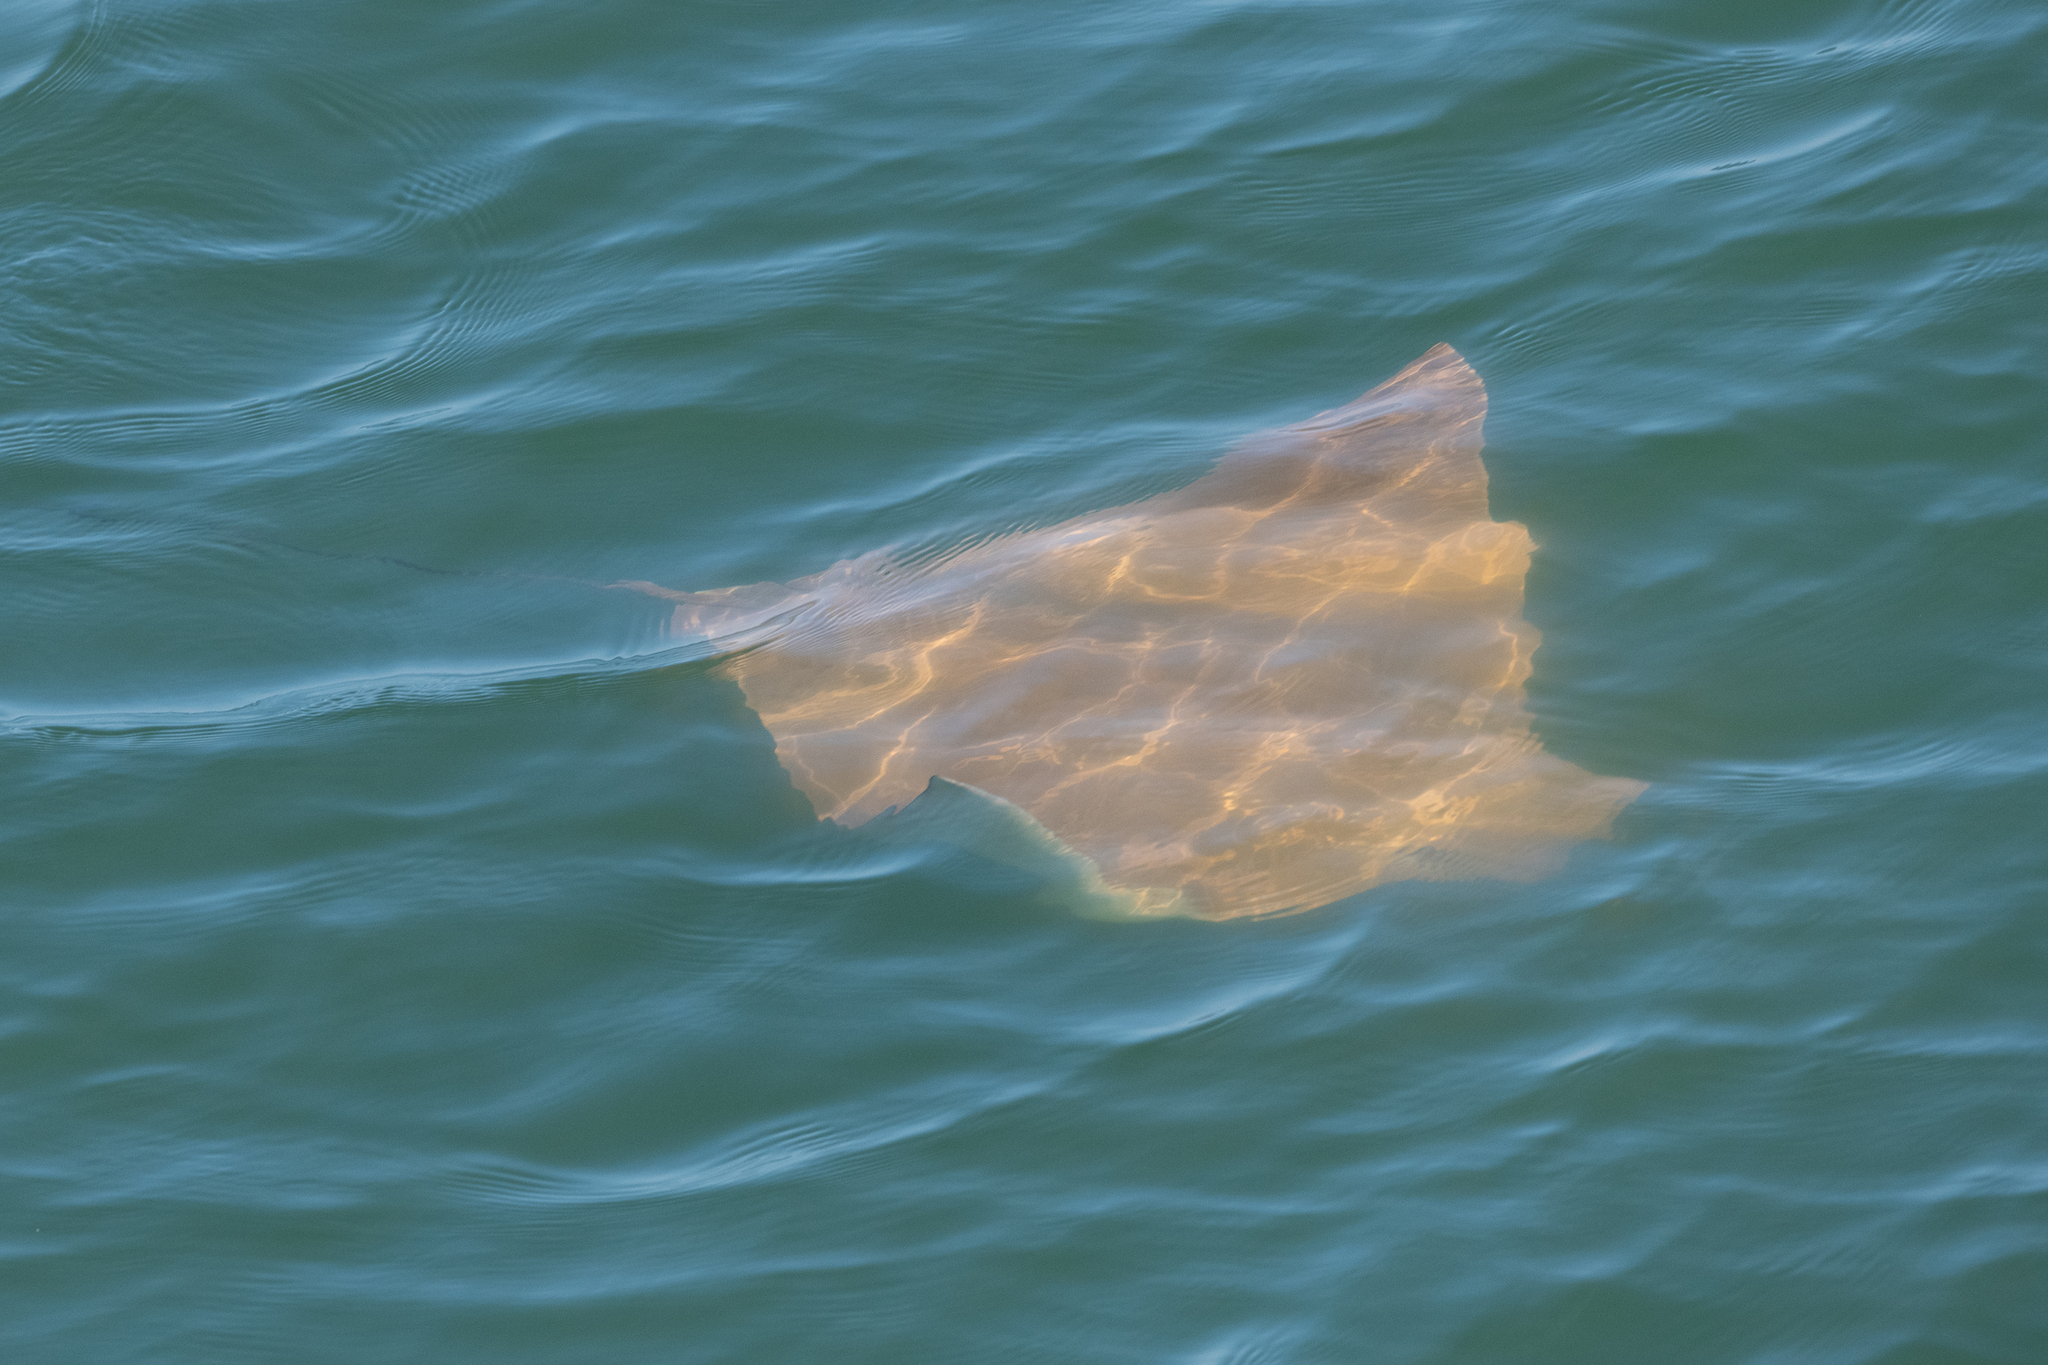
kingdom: Animalia
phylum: Chordata
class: Elasmobranchii
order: Myliobatiformes
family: Myliobatidae
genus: Rhinoptera
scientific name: Rhinoptera bonasus
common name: Cownose ray
